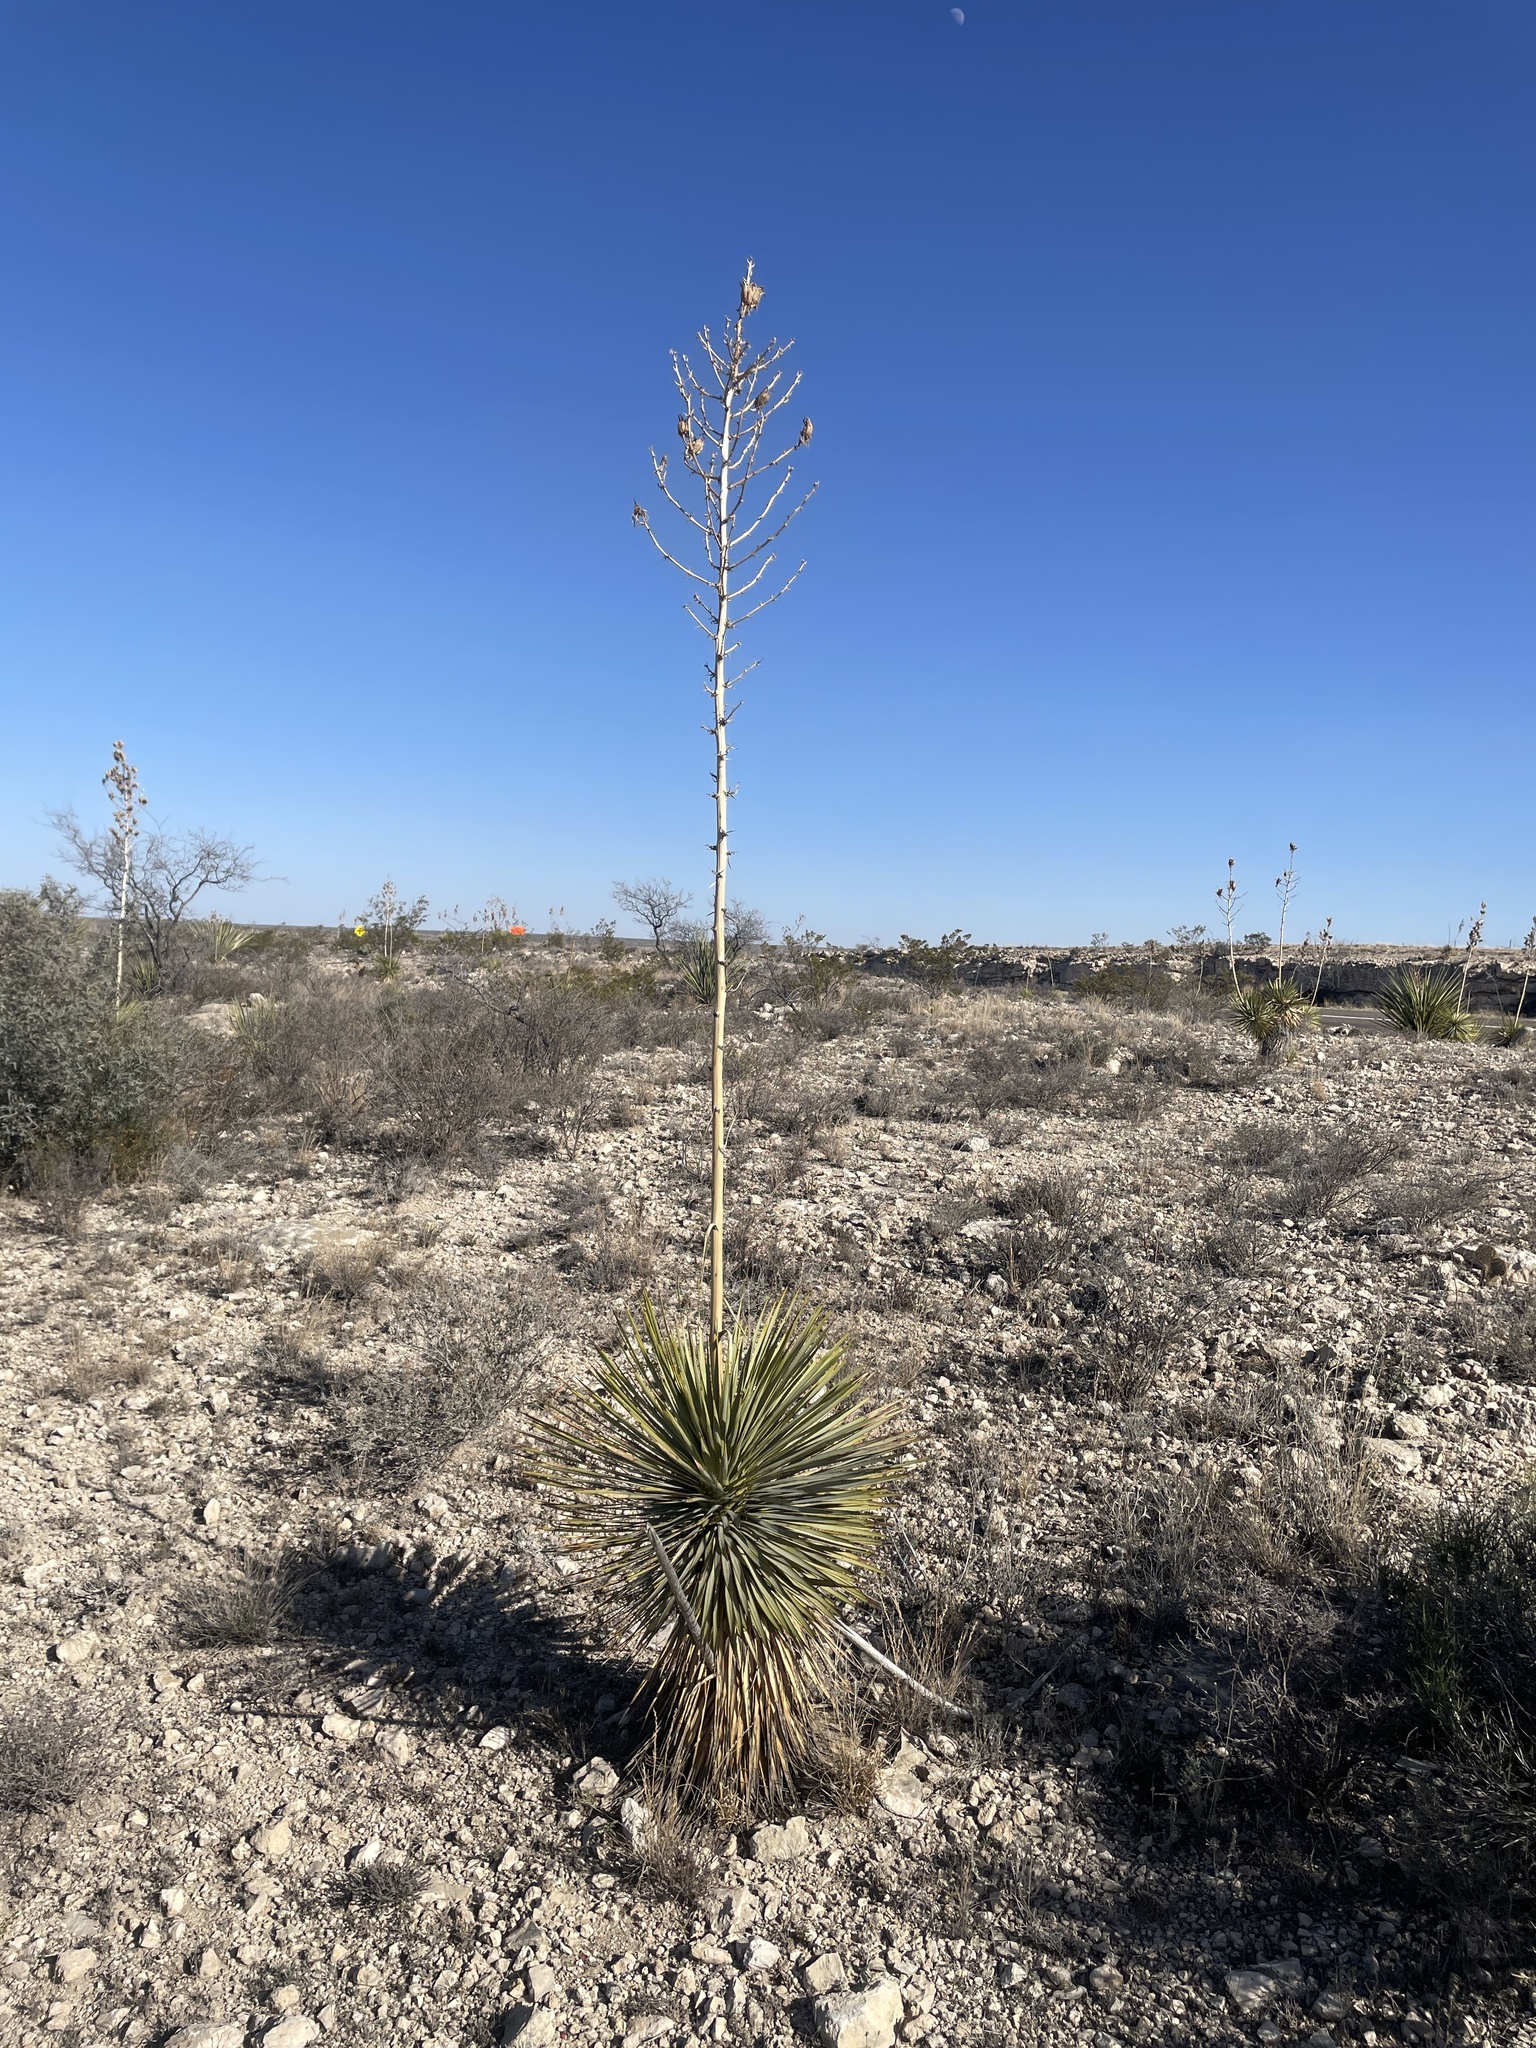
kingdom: Plantae
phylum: Tracheophyta
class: Liliopsida
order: Asparagales
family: Asparagaceae
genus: Yucca
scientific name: Yucca thompsoniana
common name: Trans-pecos yucca
